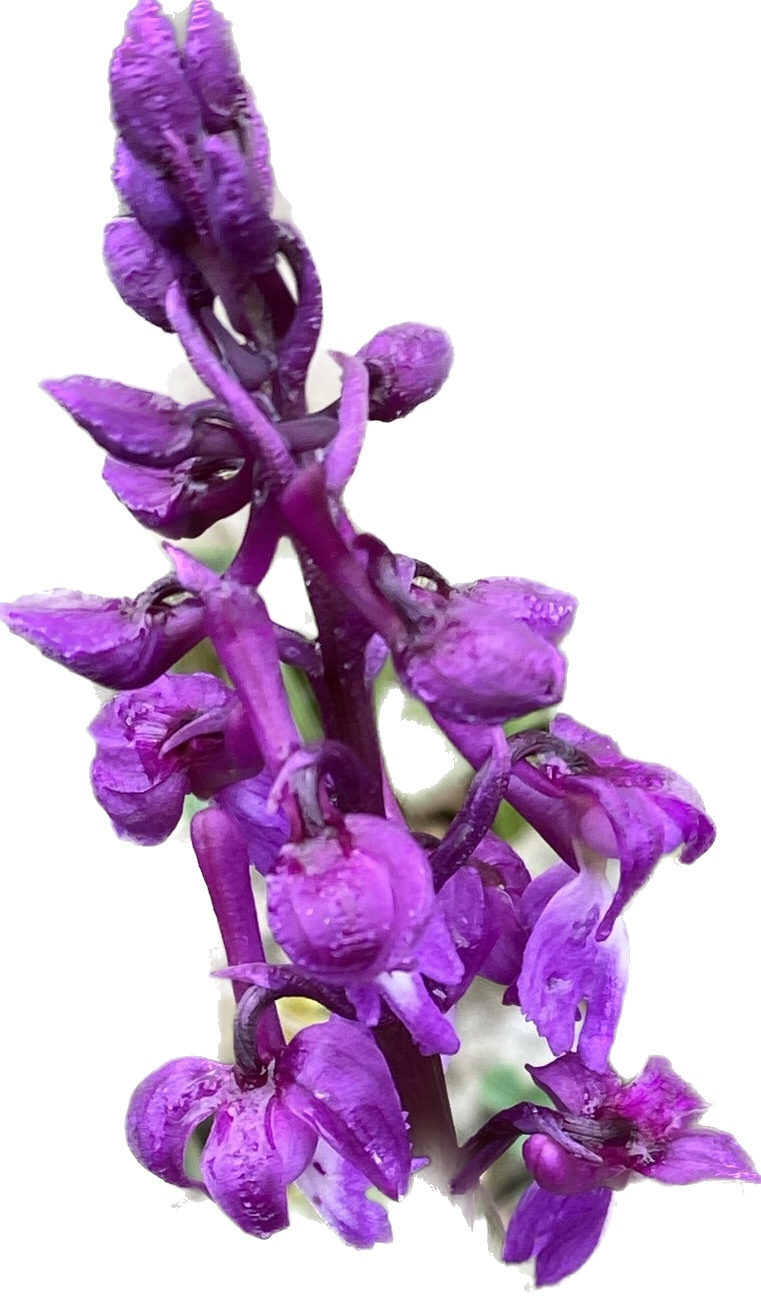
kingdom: Plantae
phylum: Tracheophyta
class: Liliopsida
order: Asparagales
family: Orchidaceae
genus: Orchis
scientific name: Orchis mascula
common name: Early-purple orchid
